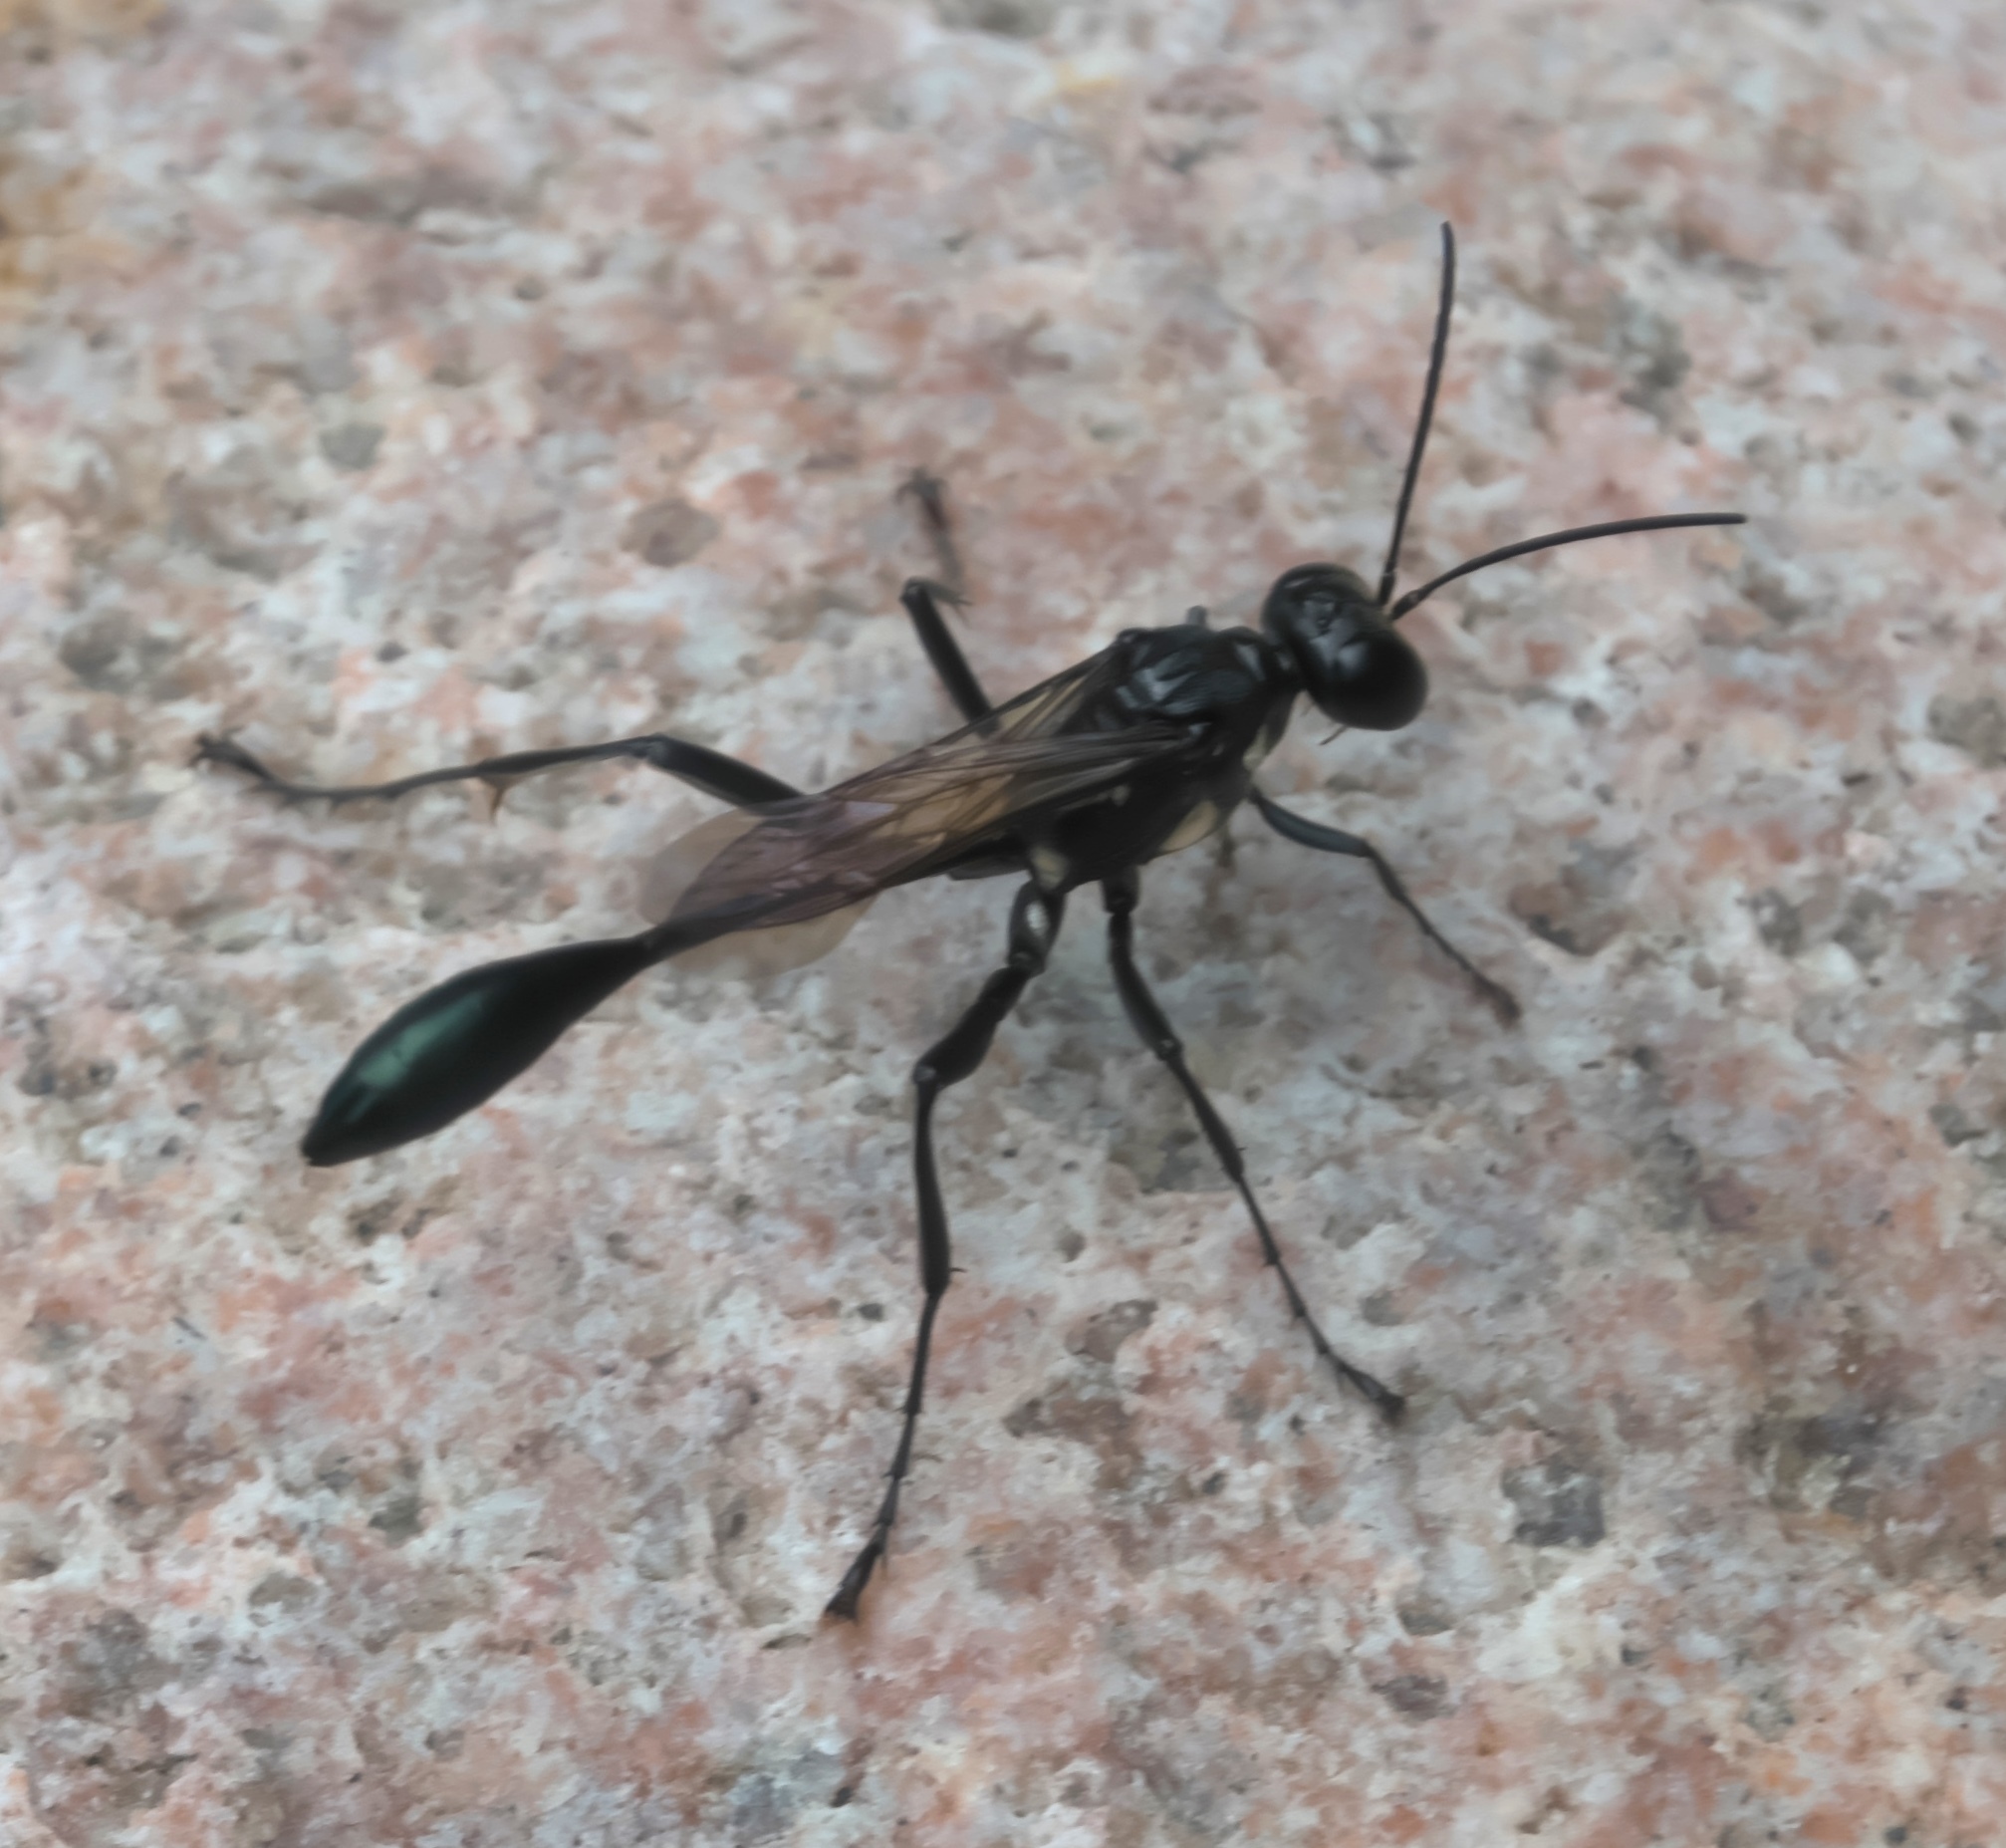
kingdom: Animalia
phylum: Arthropoda
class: Insecta
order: Hymenoptera
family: Sphecidae
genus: Eremnophila
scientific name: Eremnophila aureonotata
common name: Gold-marked thread-waisted wasp
